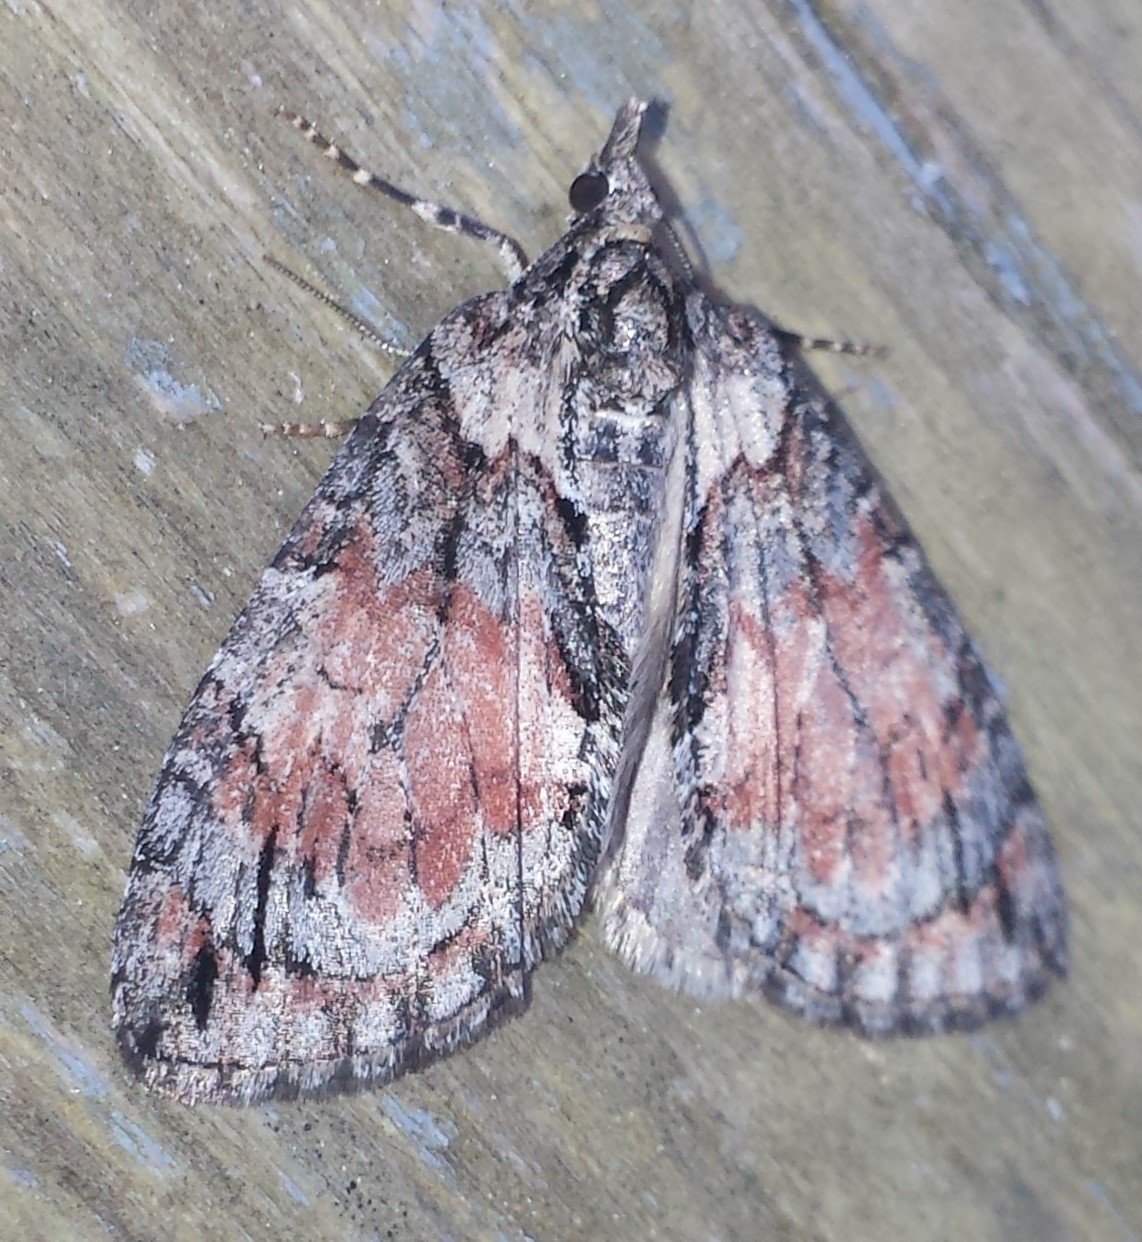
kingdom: Animalia
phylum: Arthropoda
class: Insecta
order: Lepidoptera
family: Geometridae
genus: Hydriomena
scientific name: Hydriomena perfracta
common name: Shattered hydriomena moth
